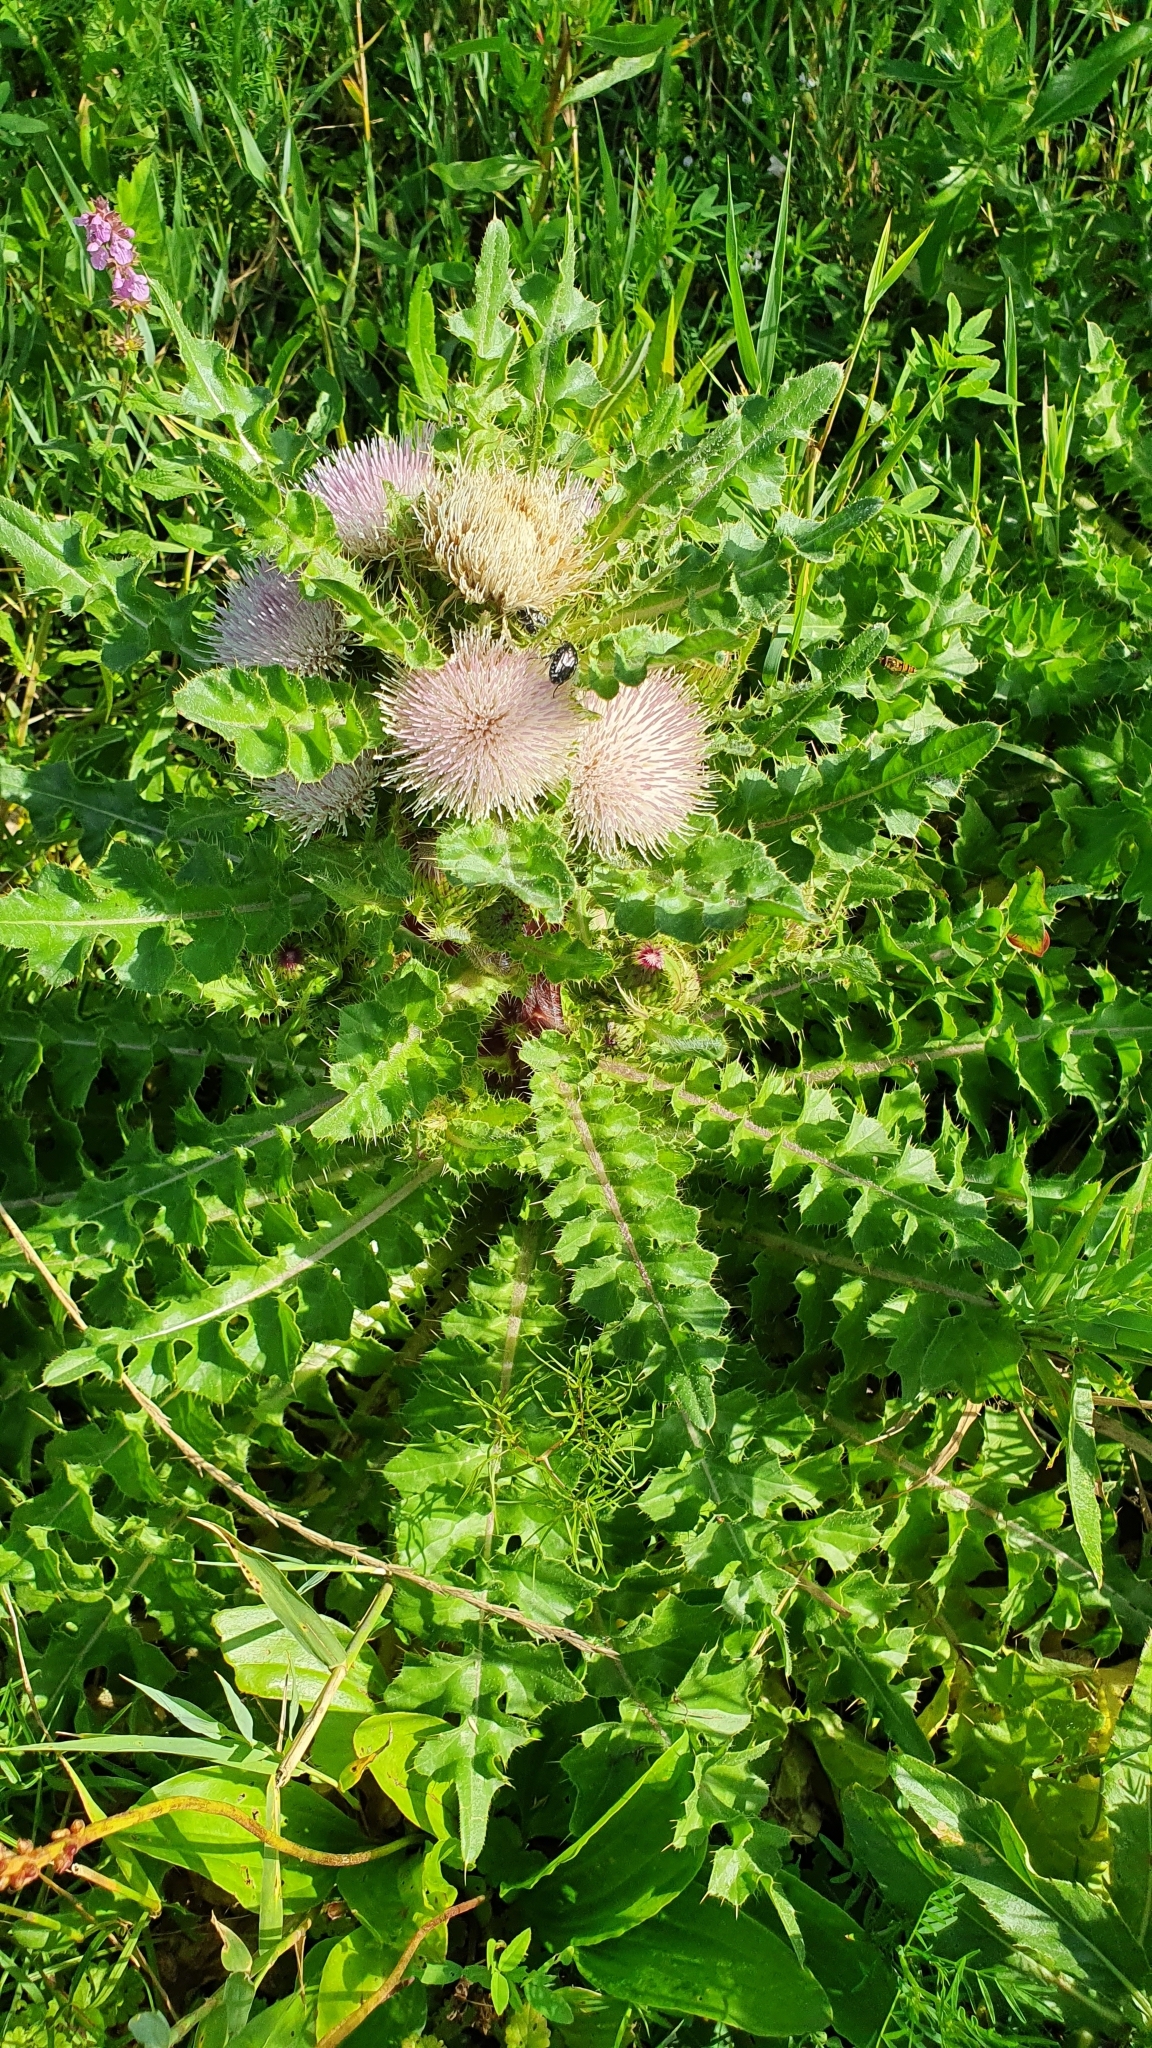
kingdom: Plantae
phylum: Tracheophyta
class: Magnoliopsida
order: Asterales
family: Asteraceae
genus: Cirsium
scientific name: Cirsium esculentum
